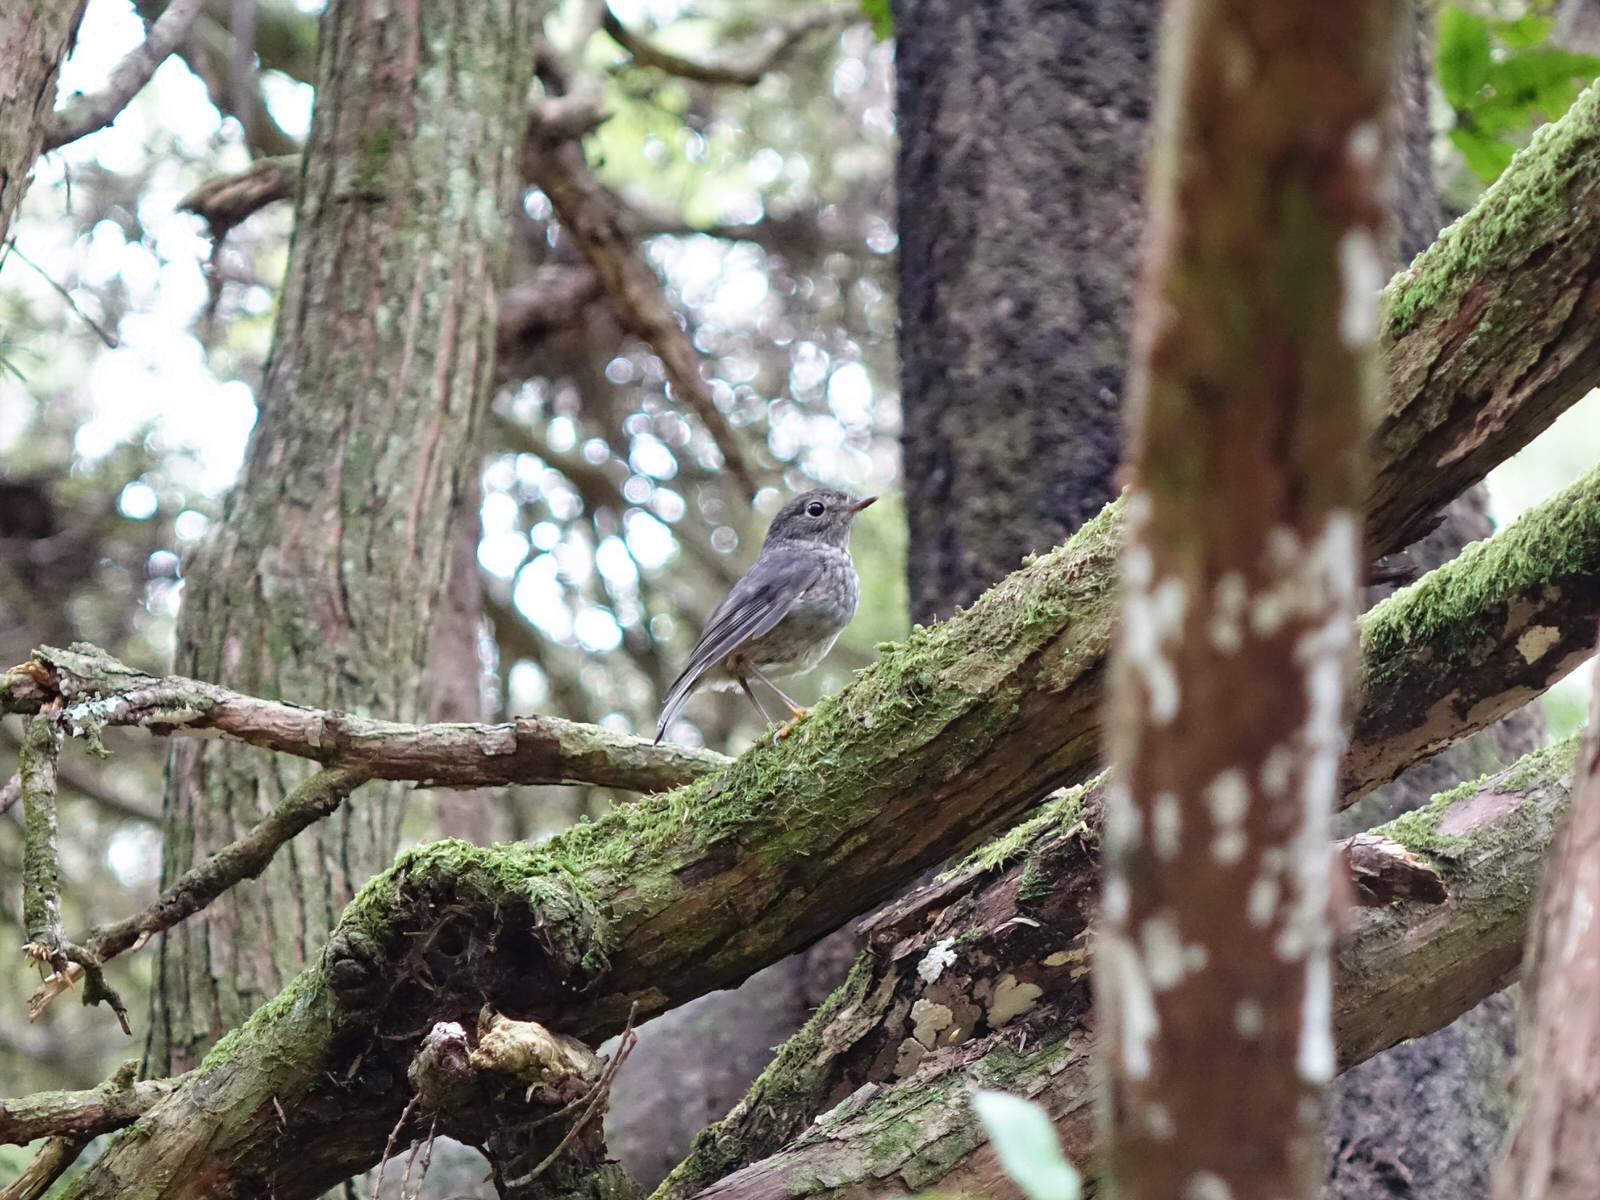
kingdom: Animalia
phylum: Chordata
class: Aves
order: Passeriformes
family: Petroicidae
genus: Petroica
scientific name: Petroica australis
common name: New zealand robin
